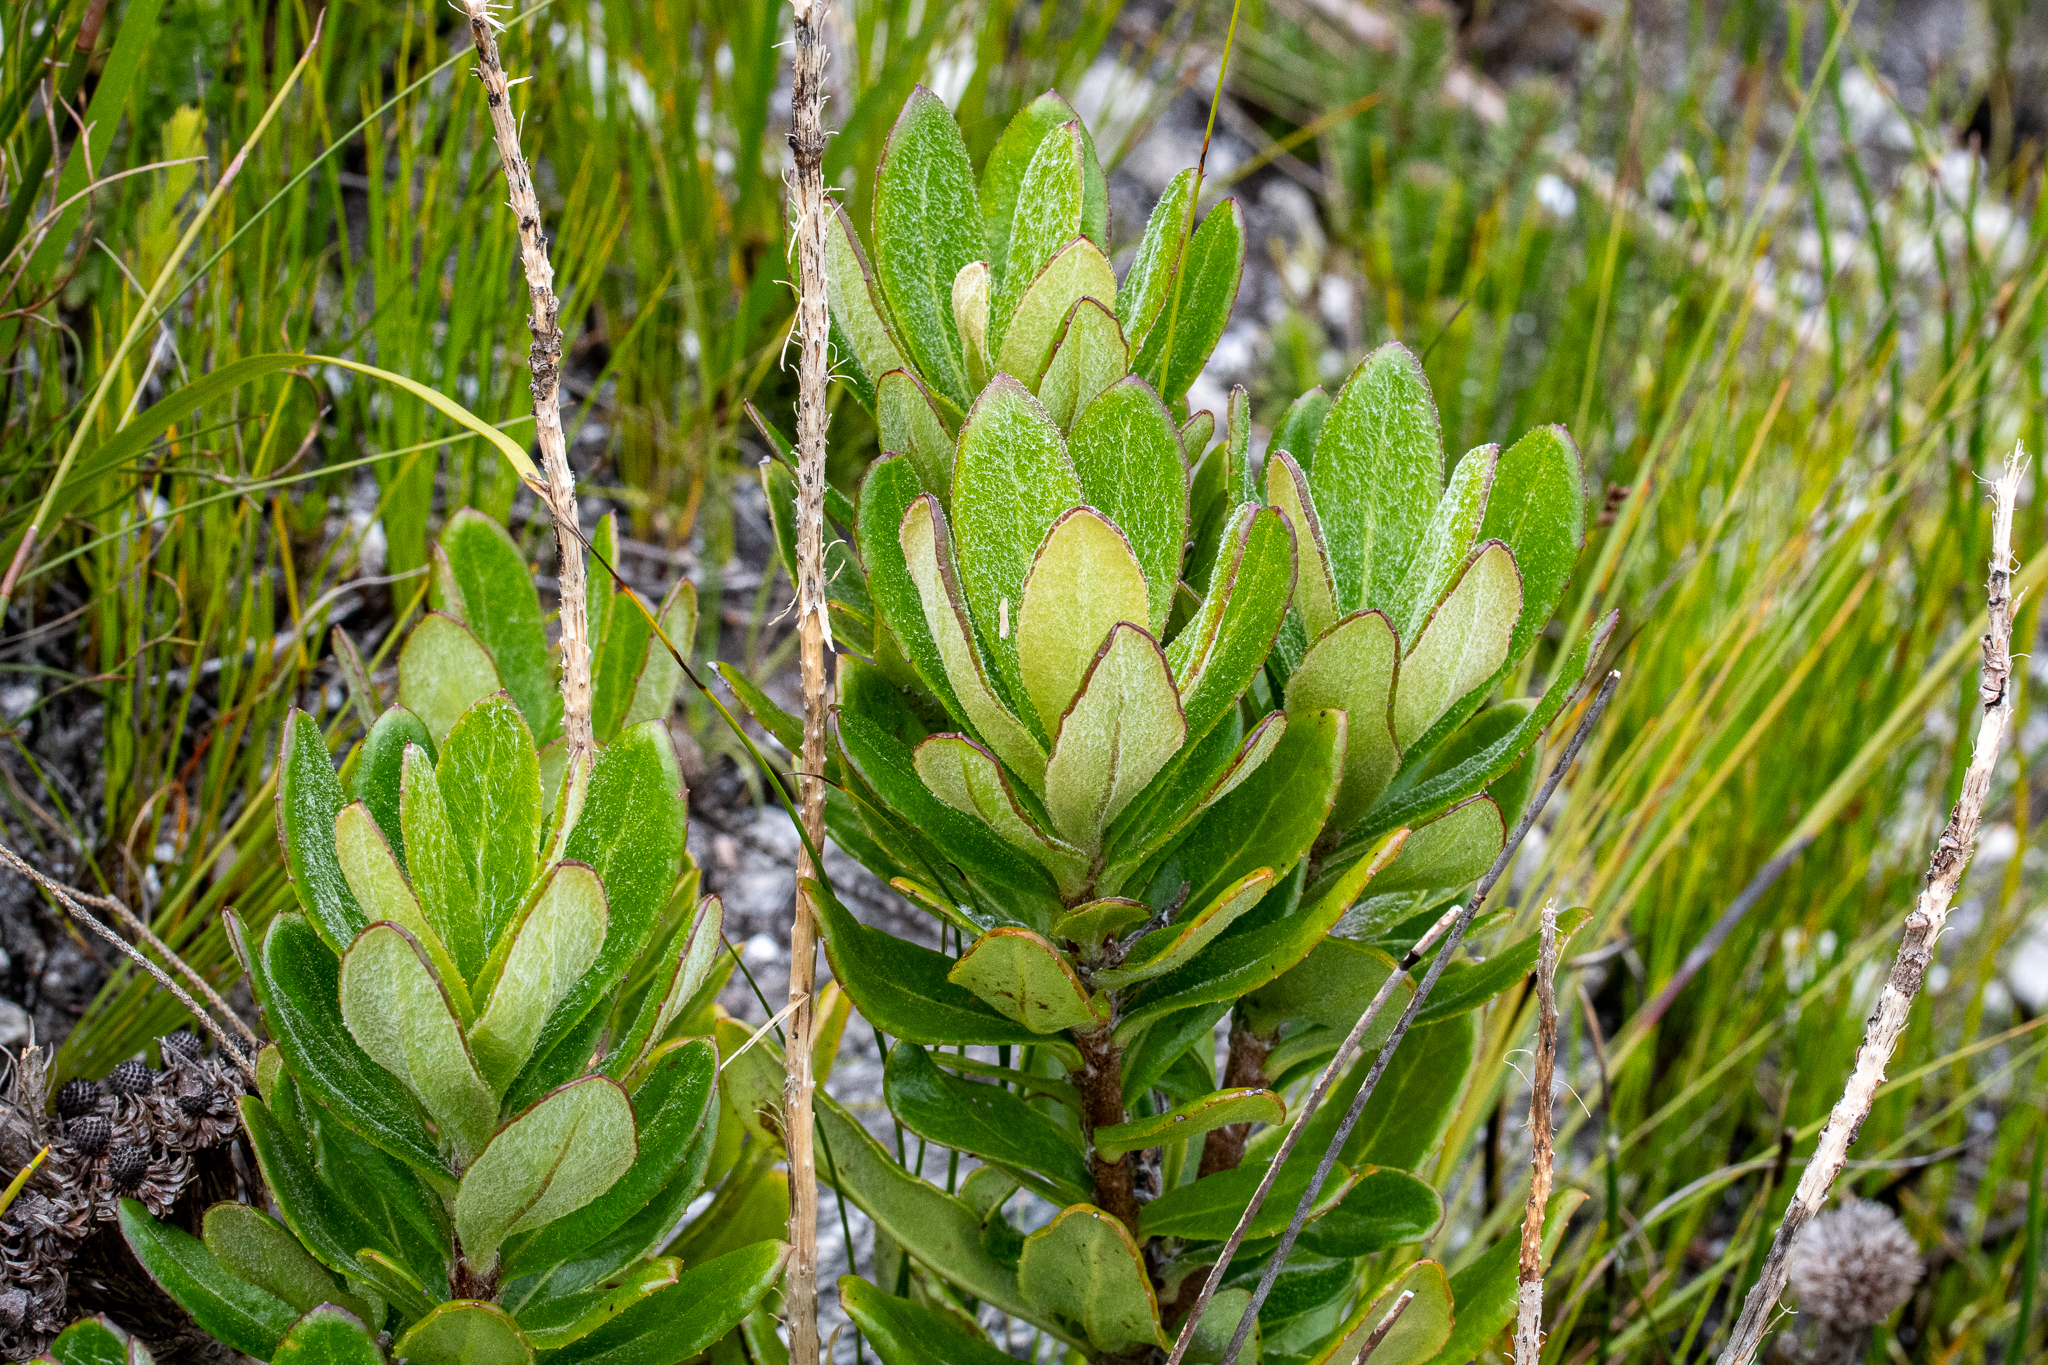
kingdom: Plantae
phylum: Tracheophyta
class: Magnoliopsida
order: Asterales
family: Asteraceae
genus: Capelio
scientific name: Capelio caledonica
